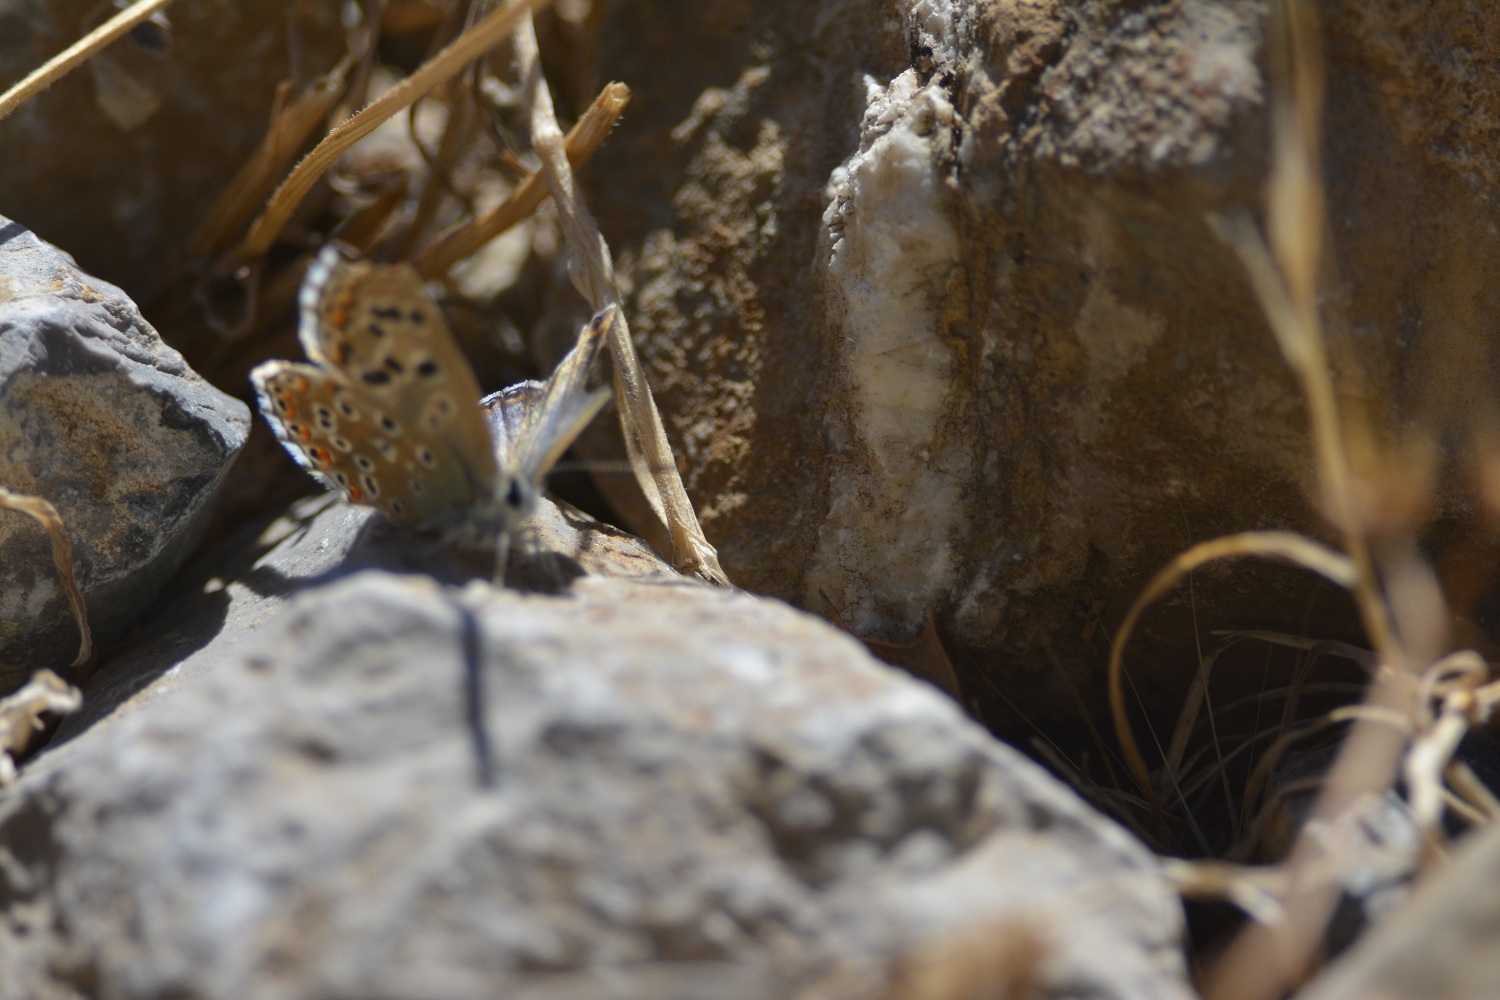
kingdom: Animalia
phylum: Arthropoda
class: Insecta
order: Lepidoptera
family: Lycaenidae
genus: Polyommatus
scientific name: Polyommatus punctiferus
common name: Spotted adonis blue
